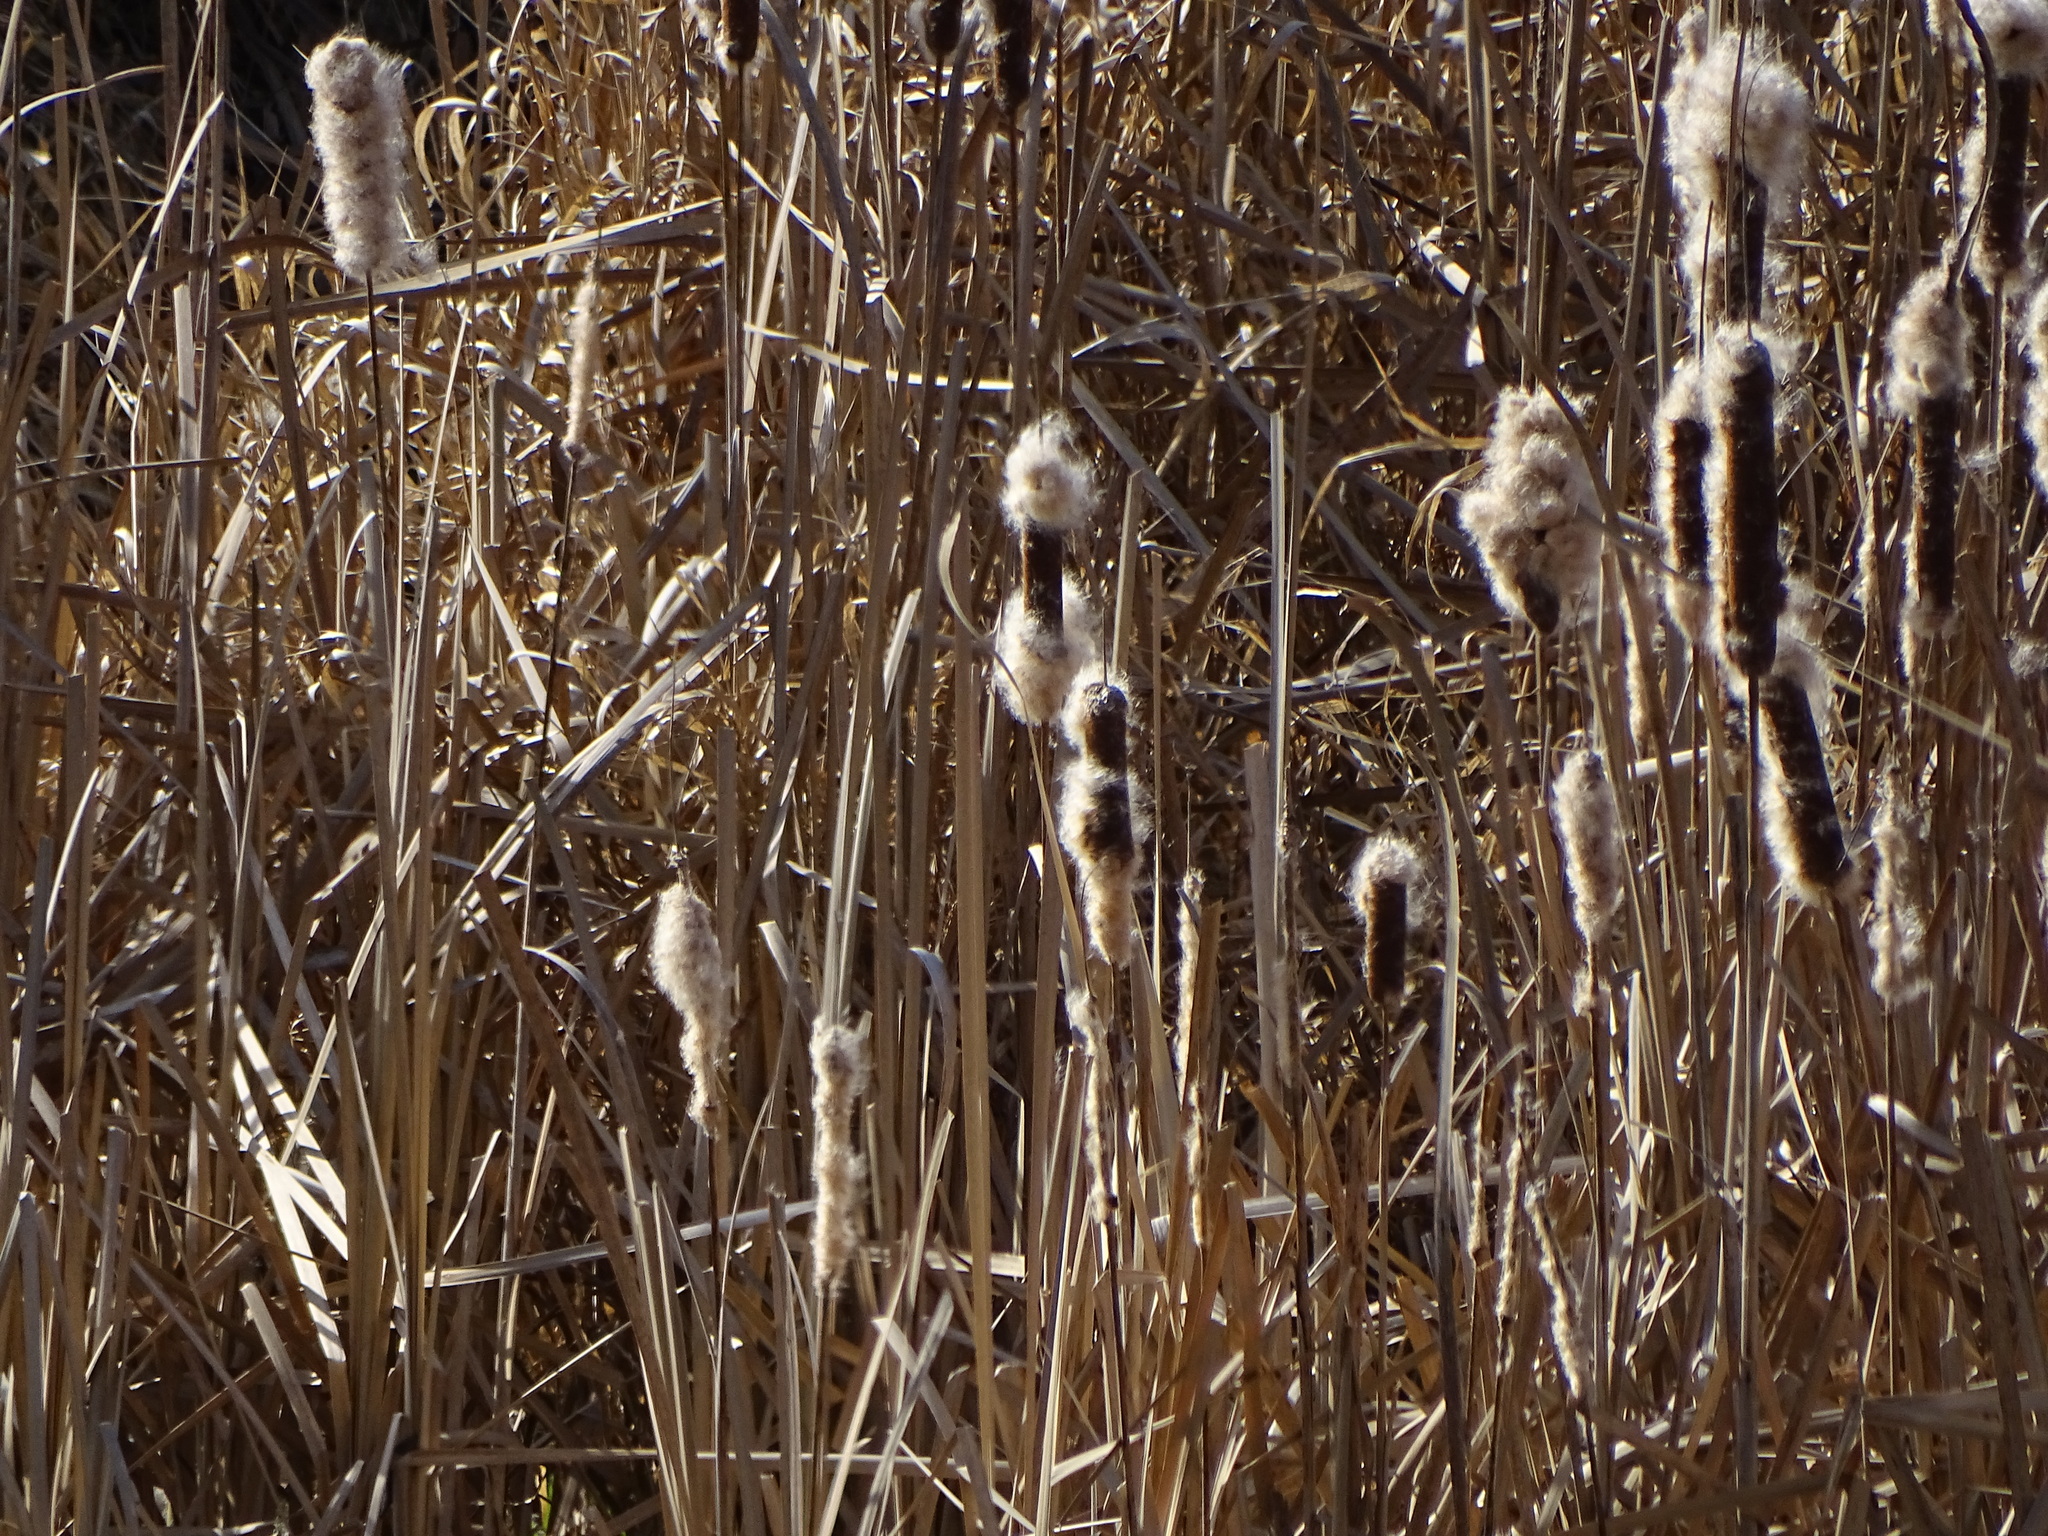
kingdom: Plantae
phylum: Tracheophyta
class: Liliopsida
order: Poales
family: Typhaceae
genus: Typha
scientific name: Typha latifolia
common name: Broadleaf cattail
